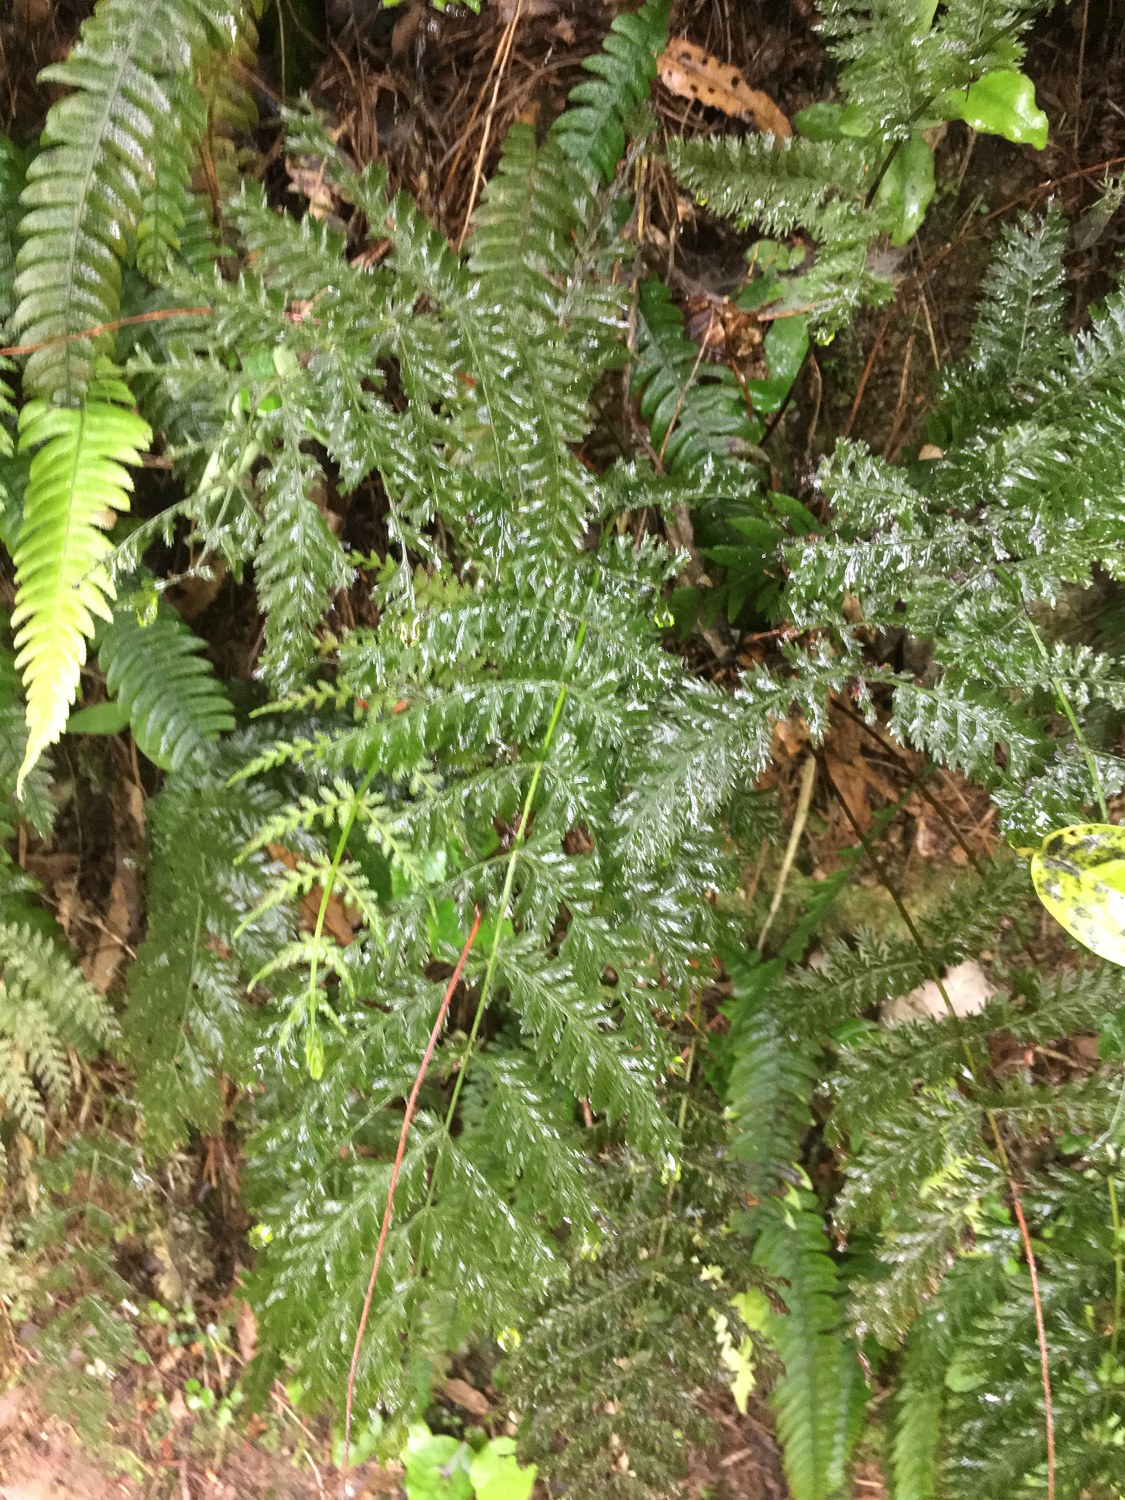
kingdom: Plantae
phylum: Tracheophyta
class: Polypodiopsida
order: Osmundales
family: Osmundaceae
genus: Leptopteris
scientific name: Leptopteris hymenophylloides
